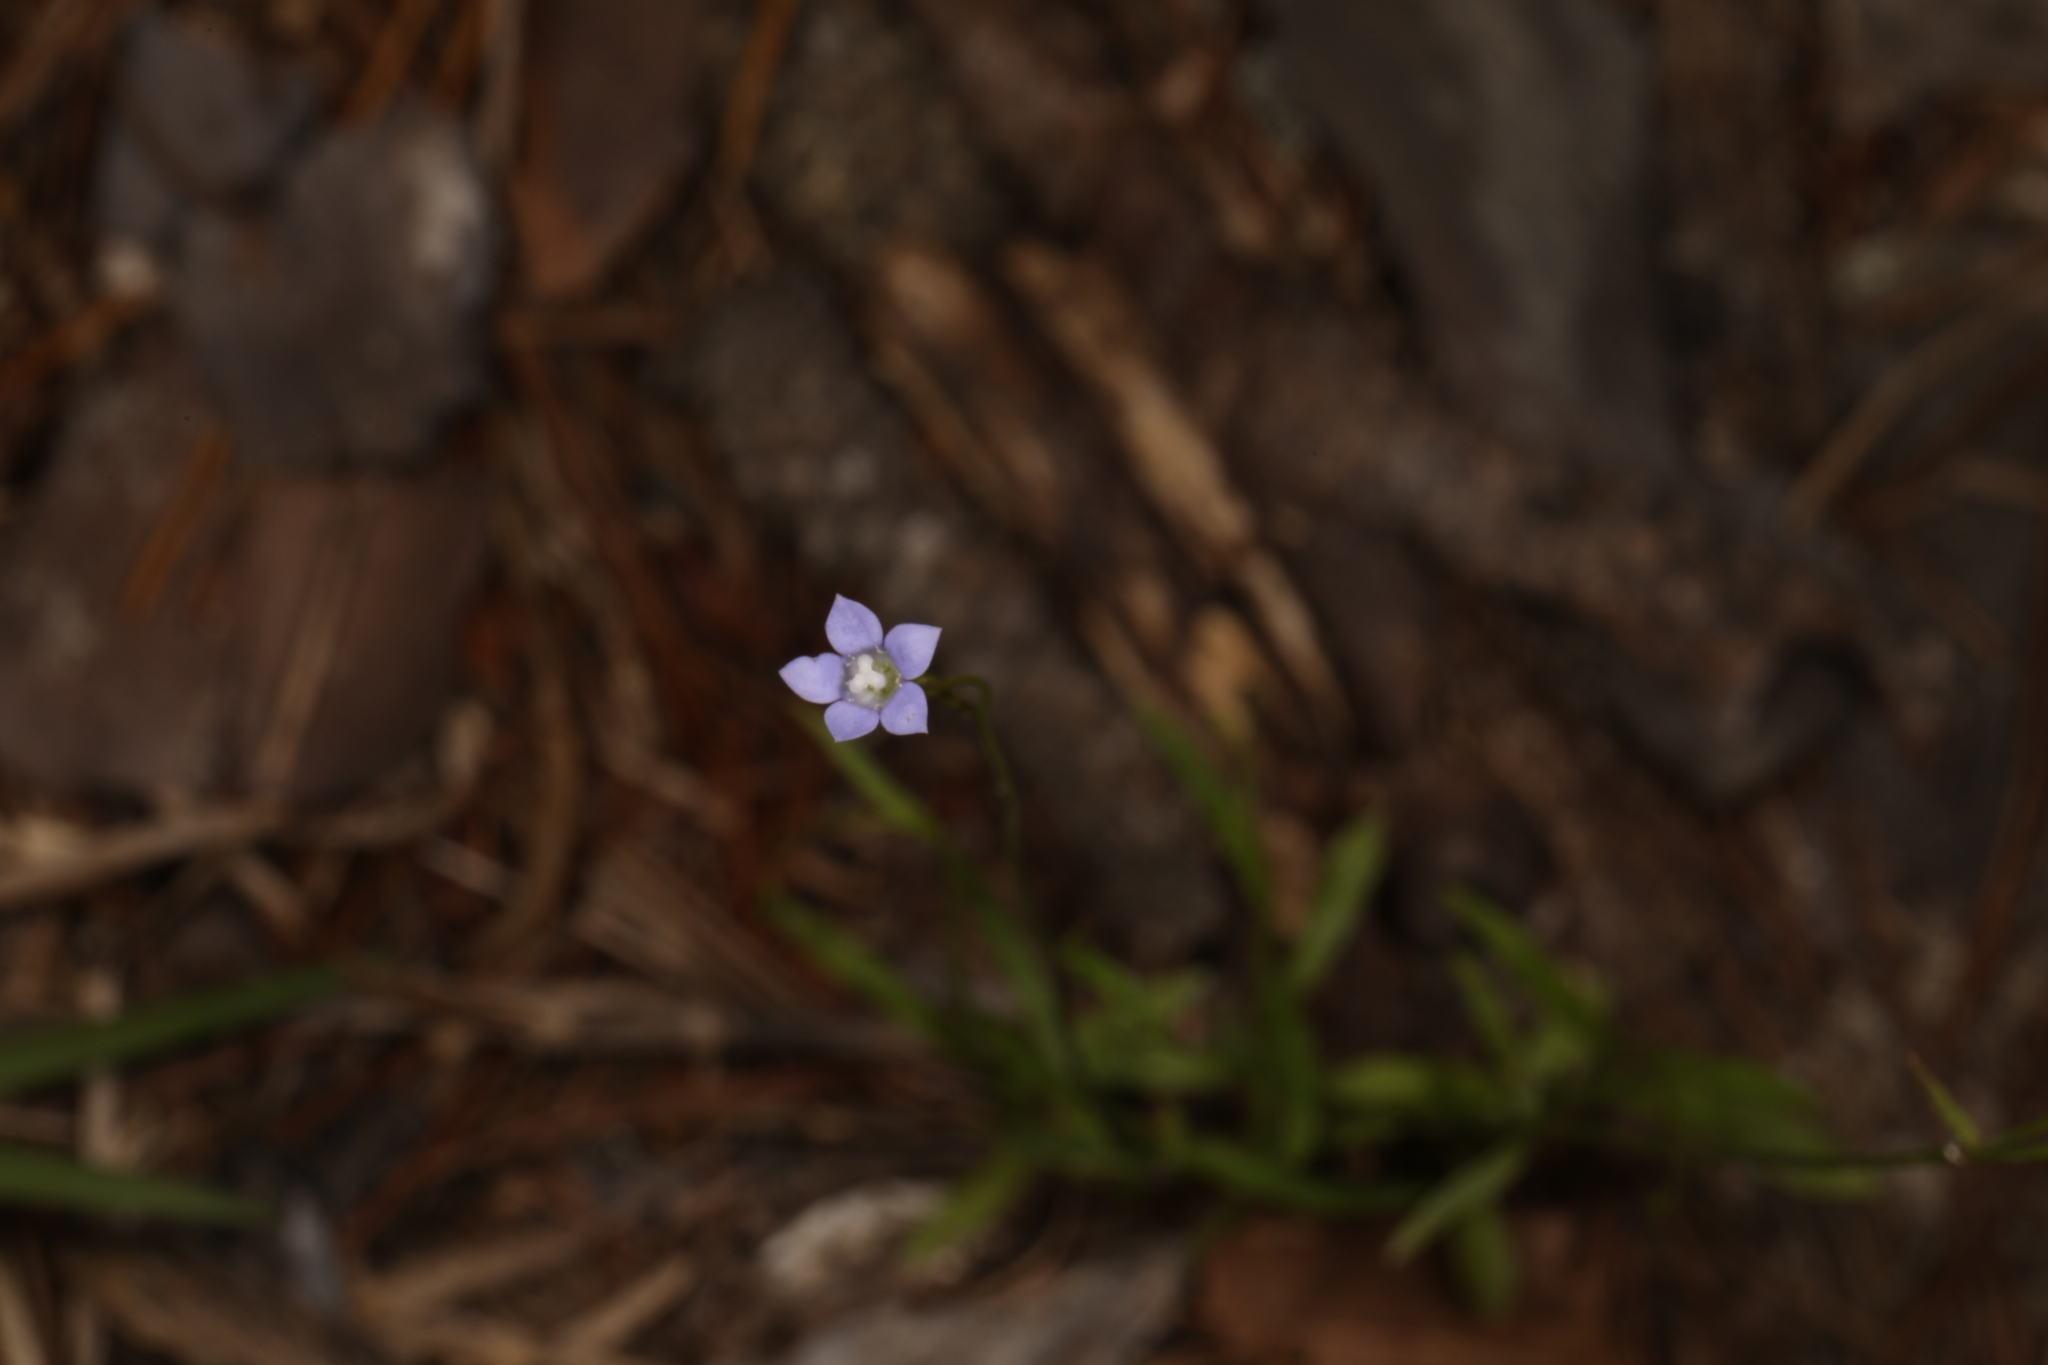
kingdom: Plantae
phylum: Tracheophyta
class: Magnoliopsida
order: Asterales
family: Campanulaceae
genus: Wahlenbergia
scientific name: Wahlenbergia marginata
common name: Southern rockbell
